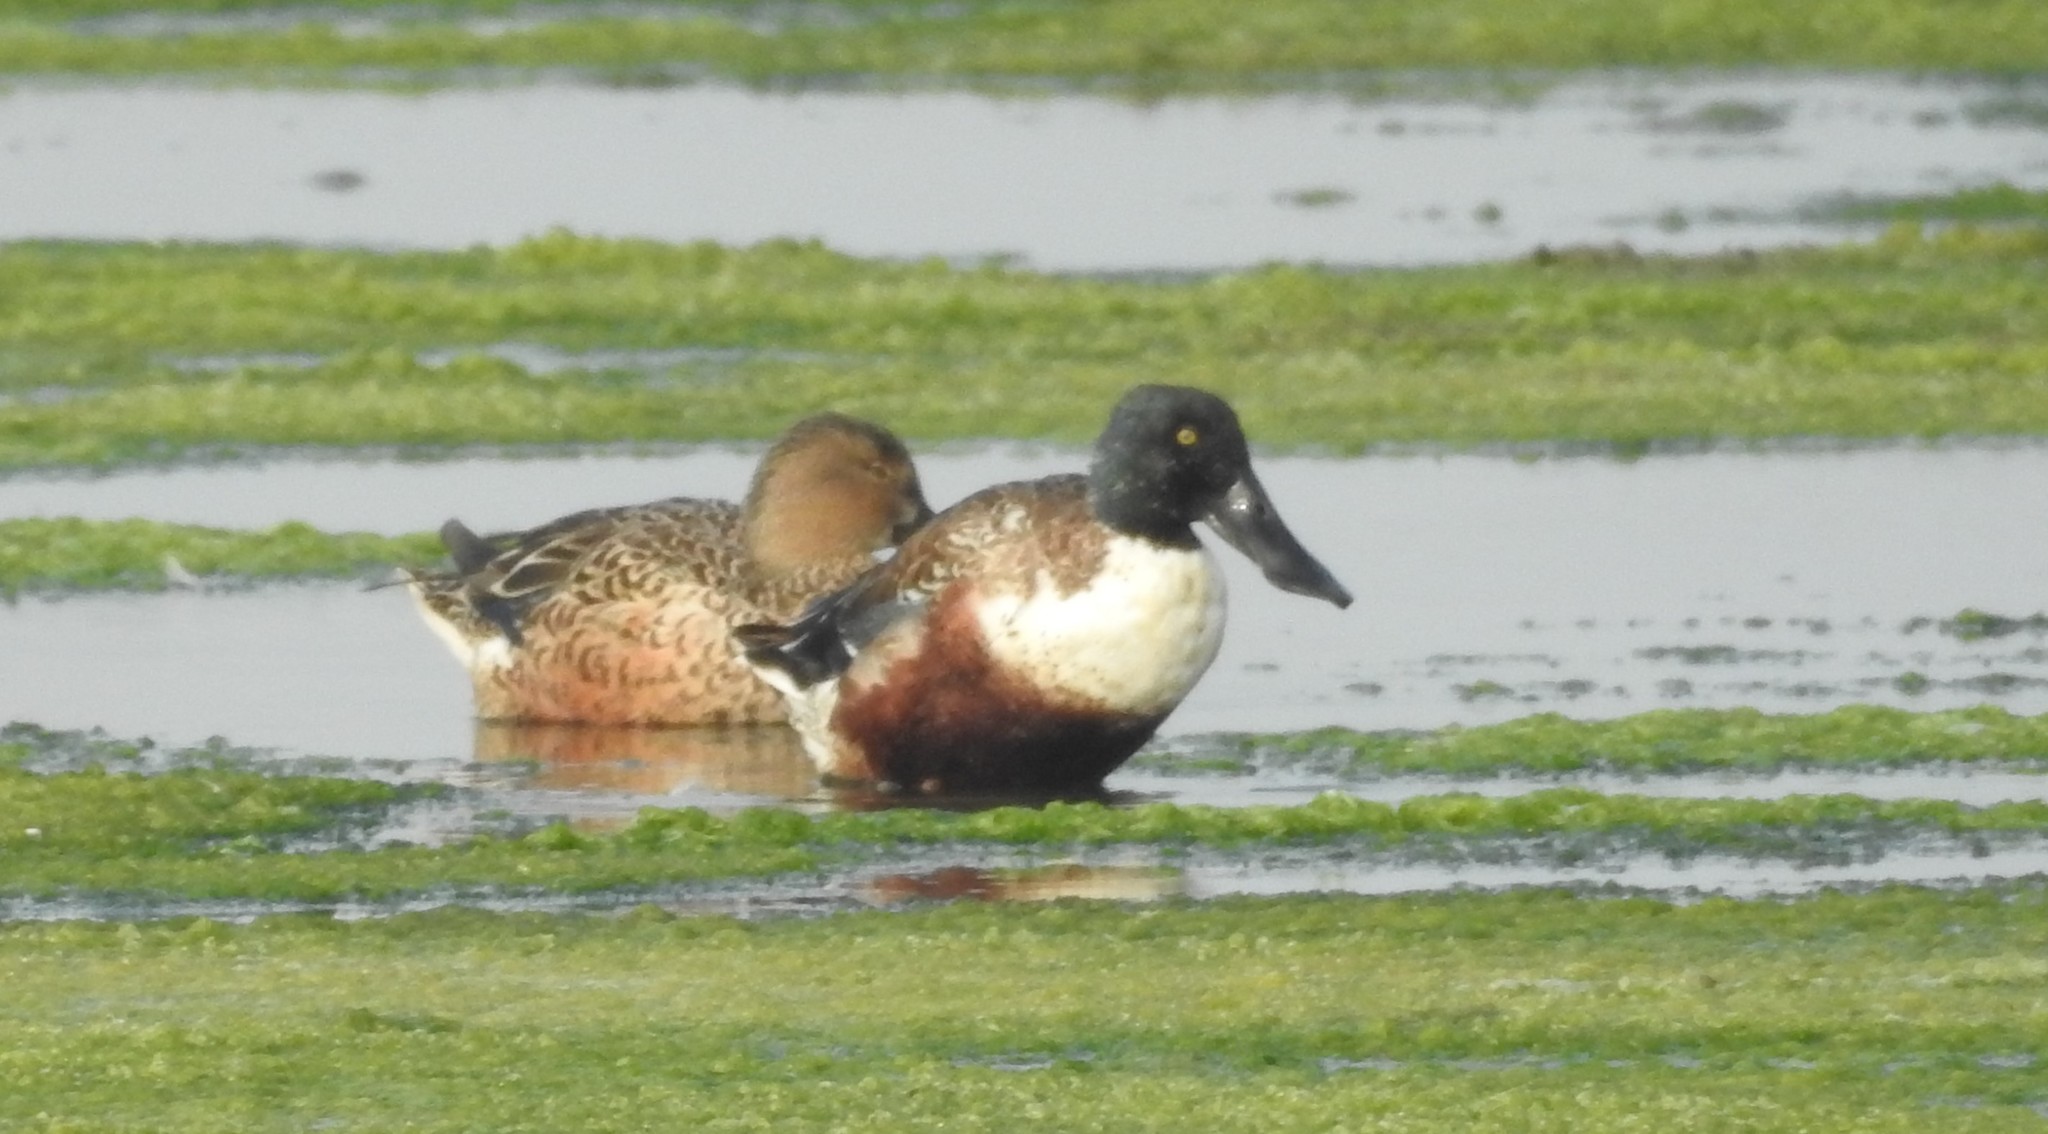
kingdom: Animalia
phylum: Chordata
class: Aves
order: Anseriformes
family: Anatidae
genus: Spatula
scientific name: Spatula clypeata
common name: Northern shoveler
